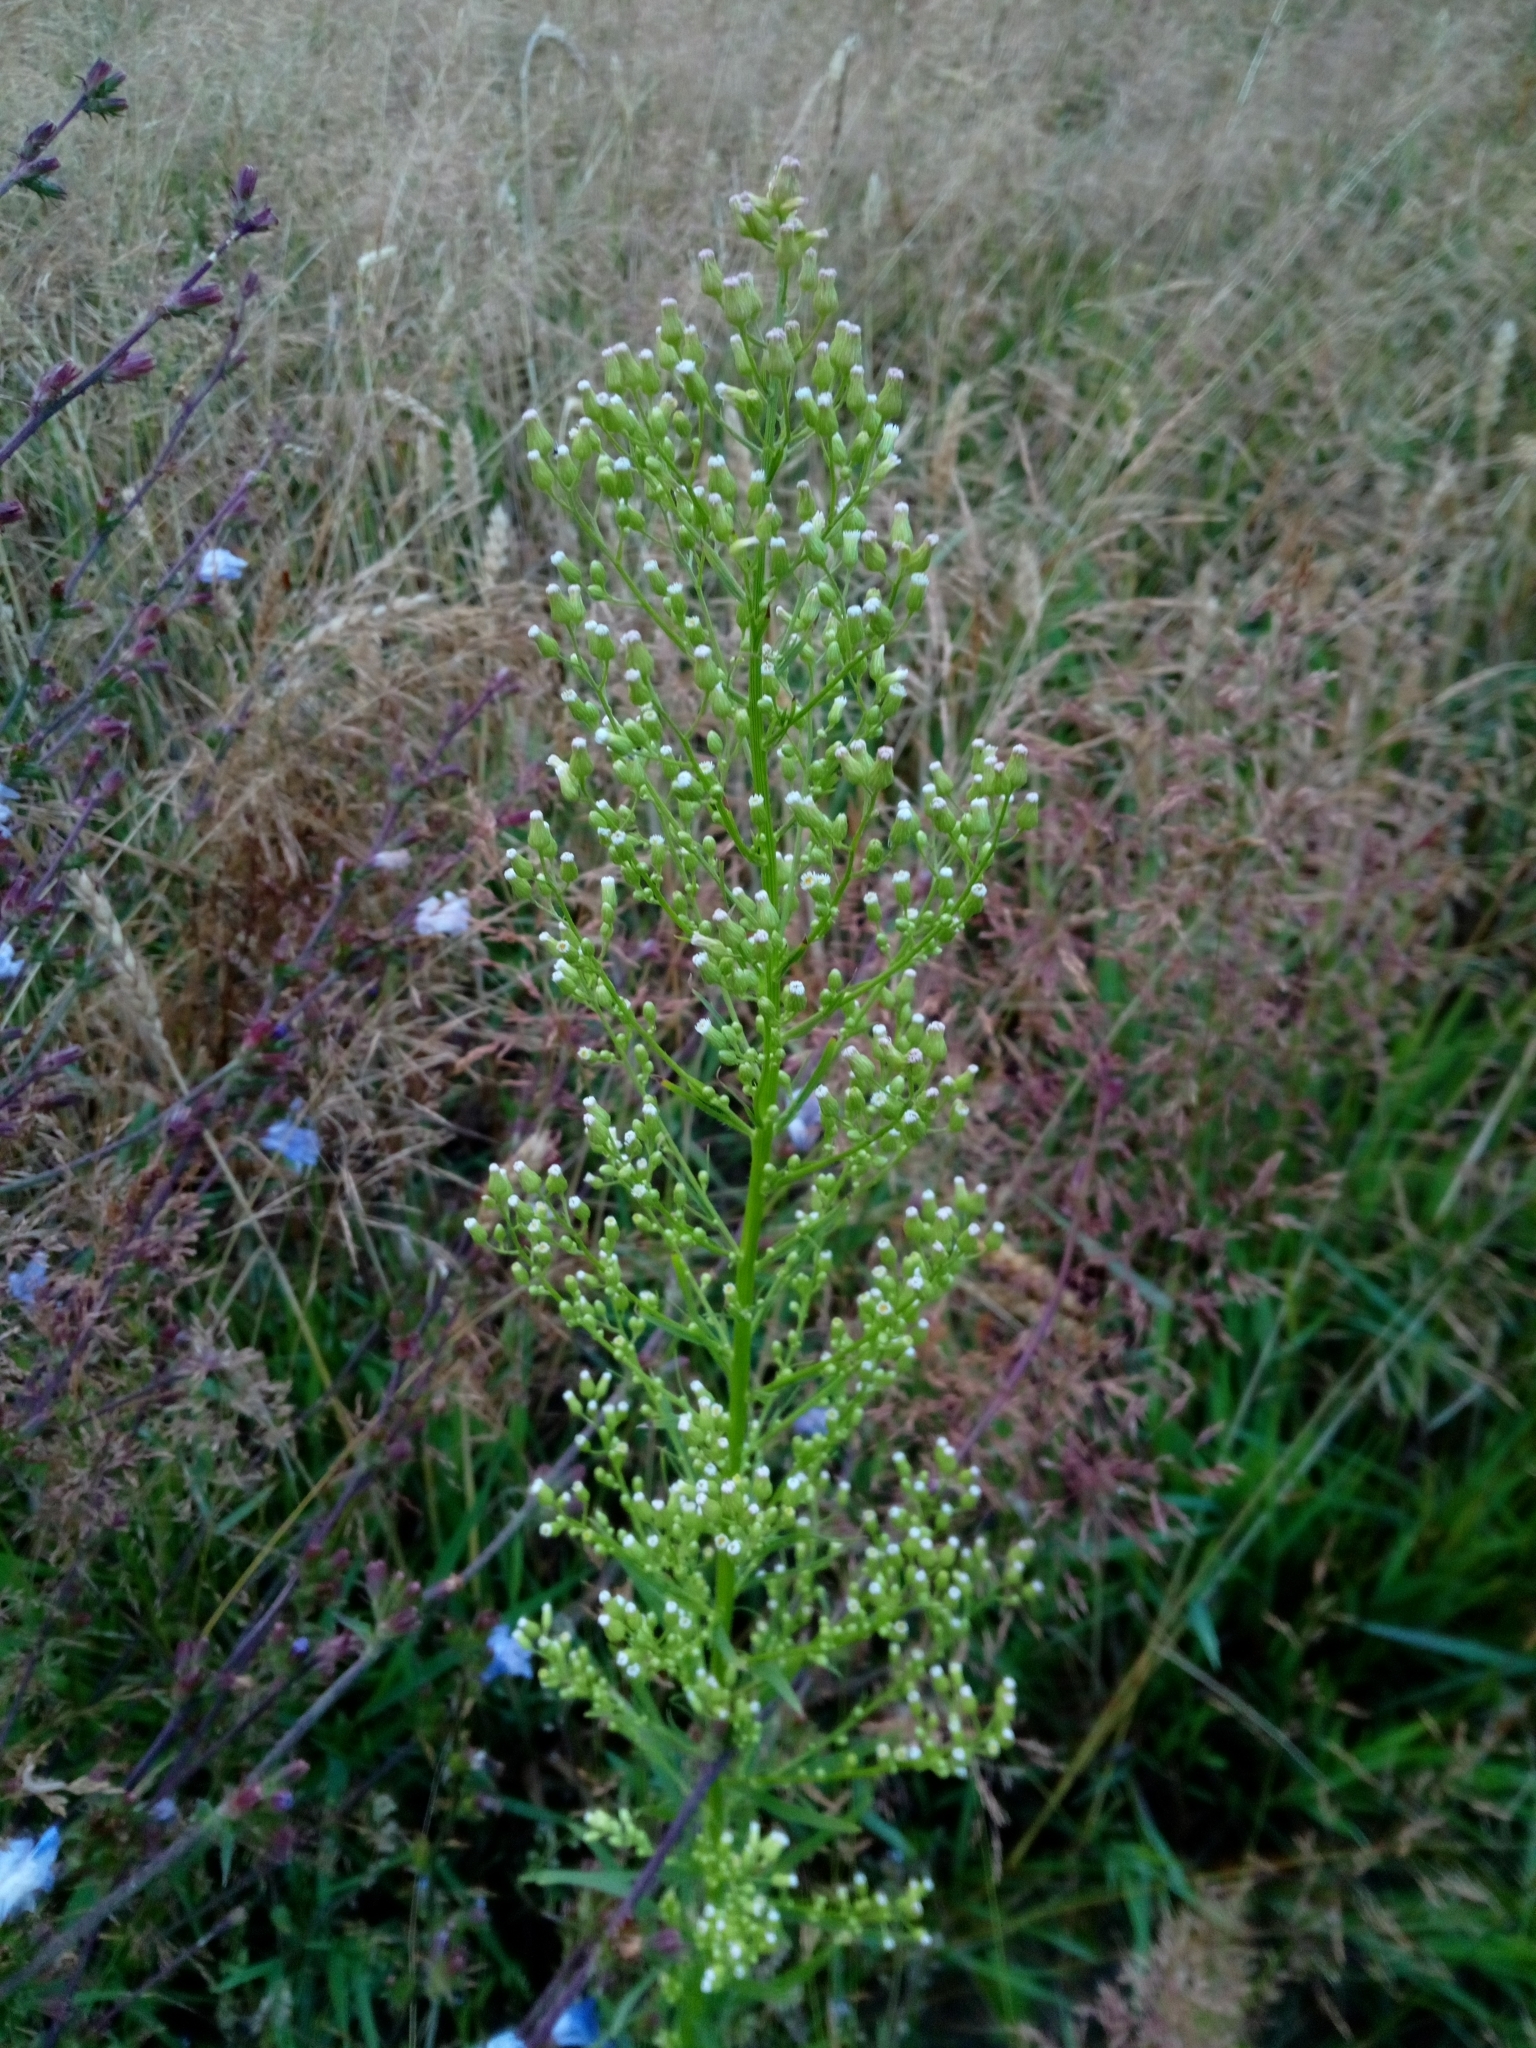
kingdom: Plantae
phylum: Tracheophyta
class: Magnoliopsida
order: Asterales
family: Asteraceae
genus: Erigeron
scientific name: Erigeron canadensis
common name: Canadian fleabane
